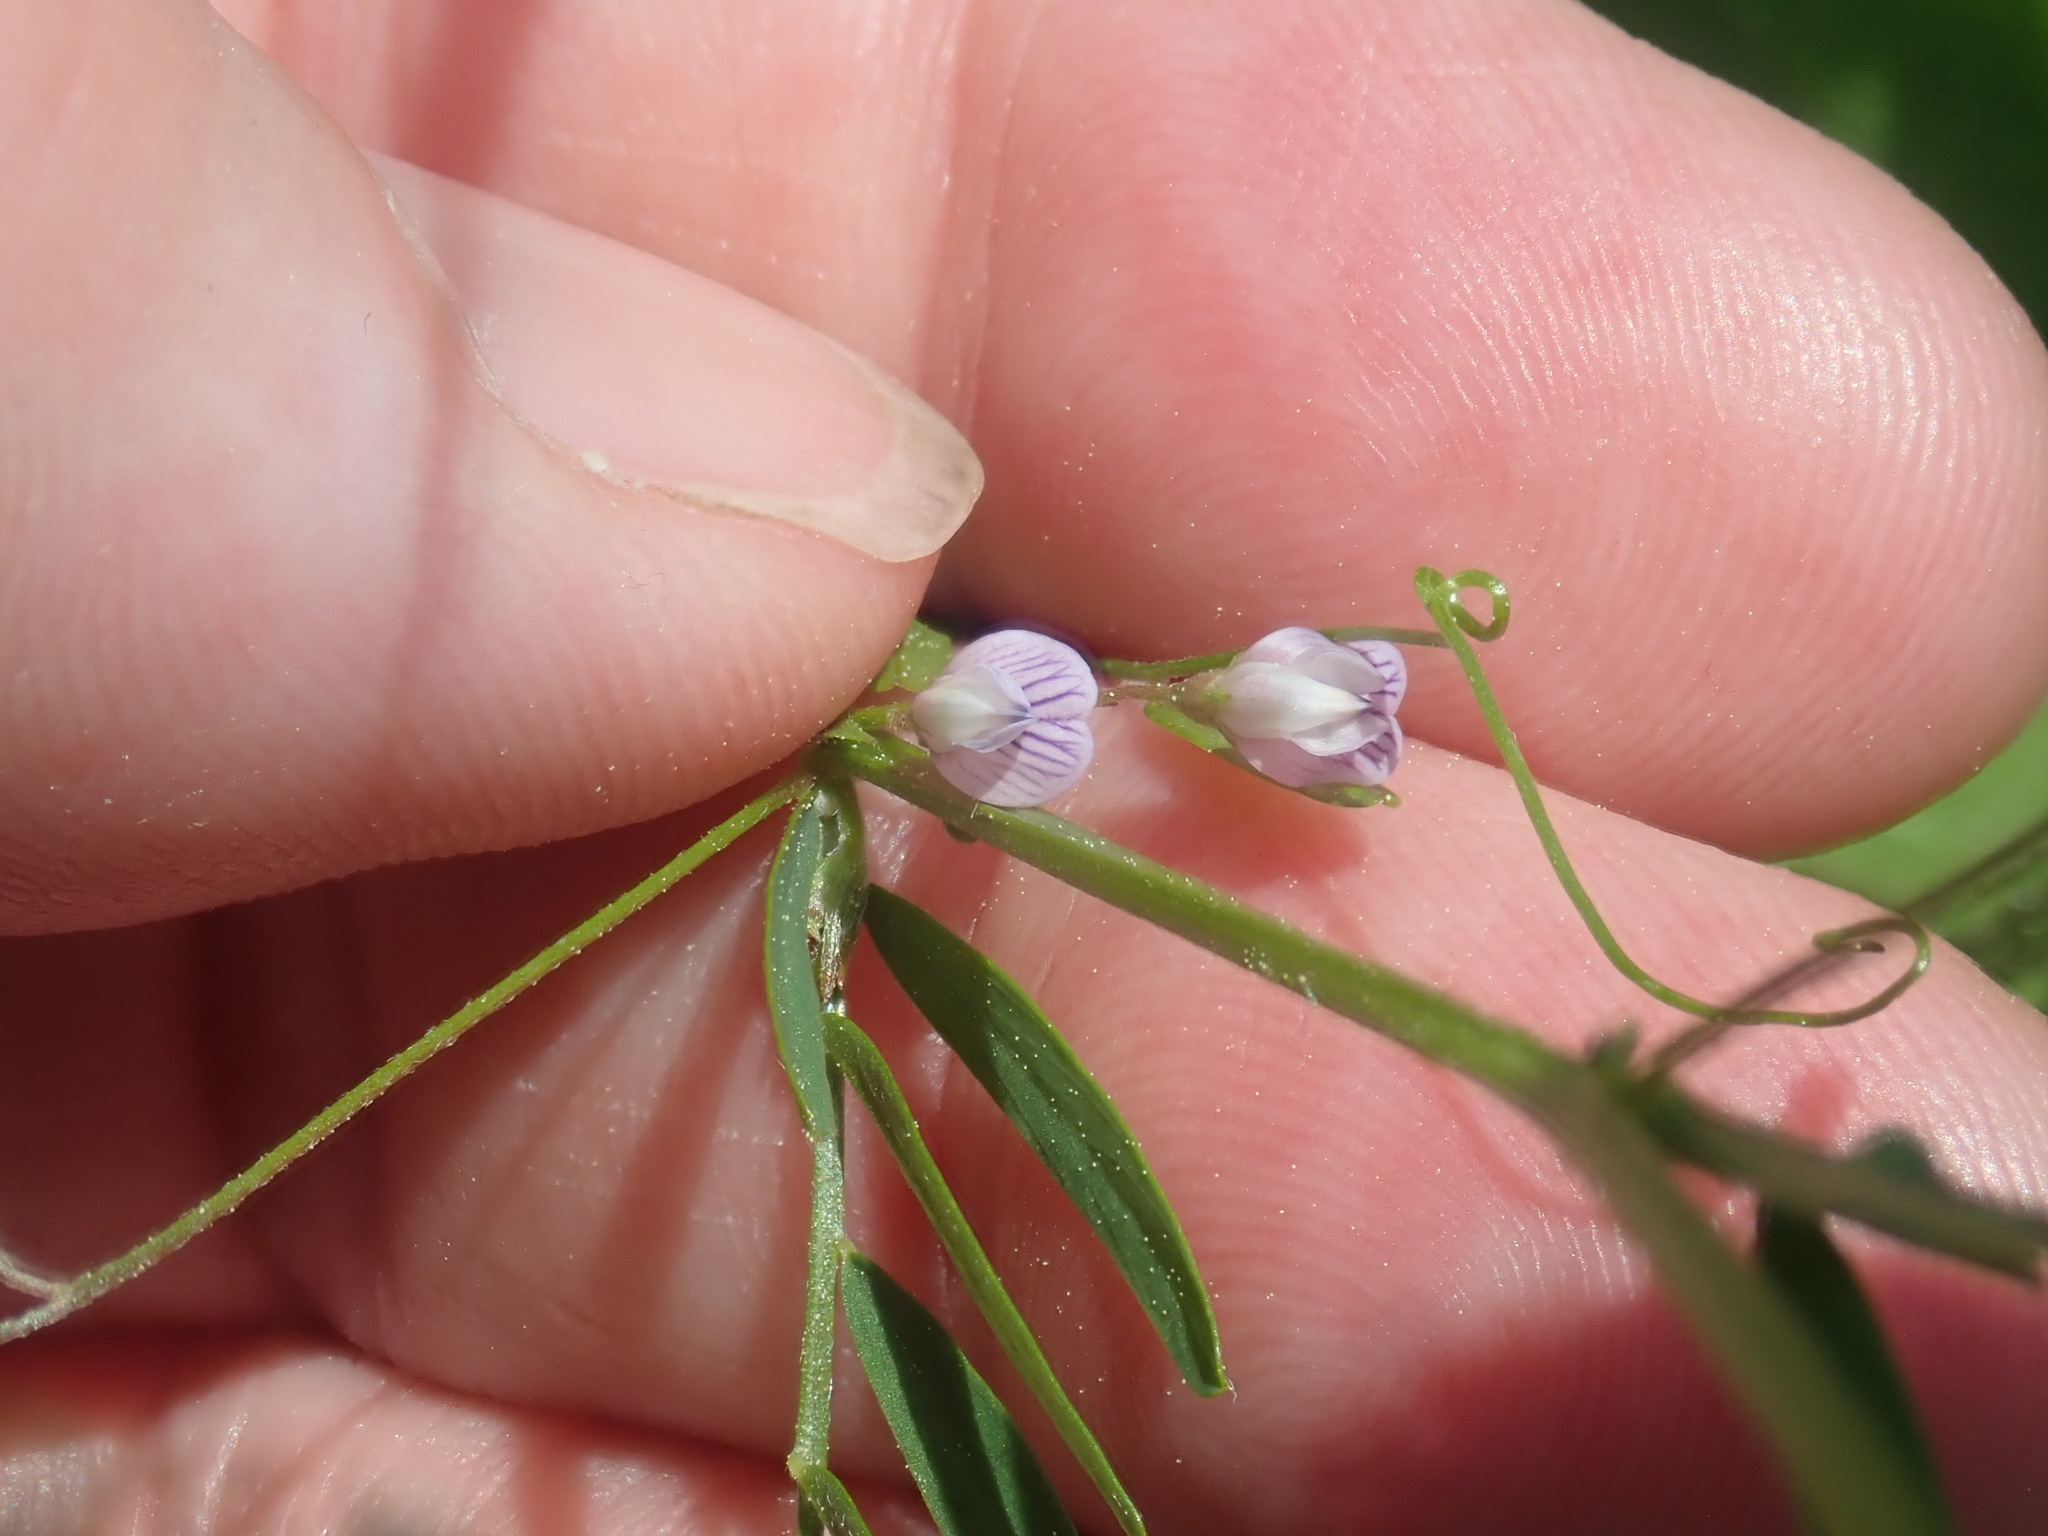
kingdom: Plantae
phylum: Tracheophyta
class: Magnoliopsida
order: Fabales
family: Fabaceae
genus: Vicia
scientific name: Vicia tetrasperma
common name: Smooth tare
